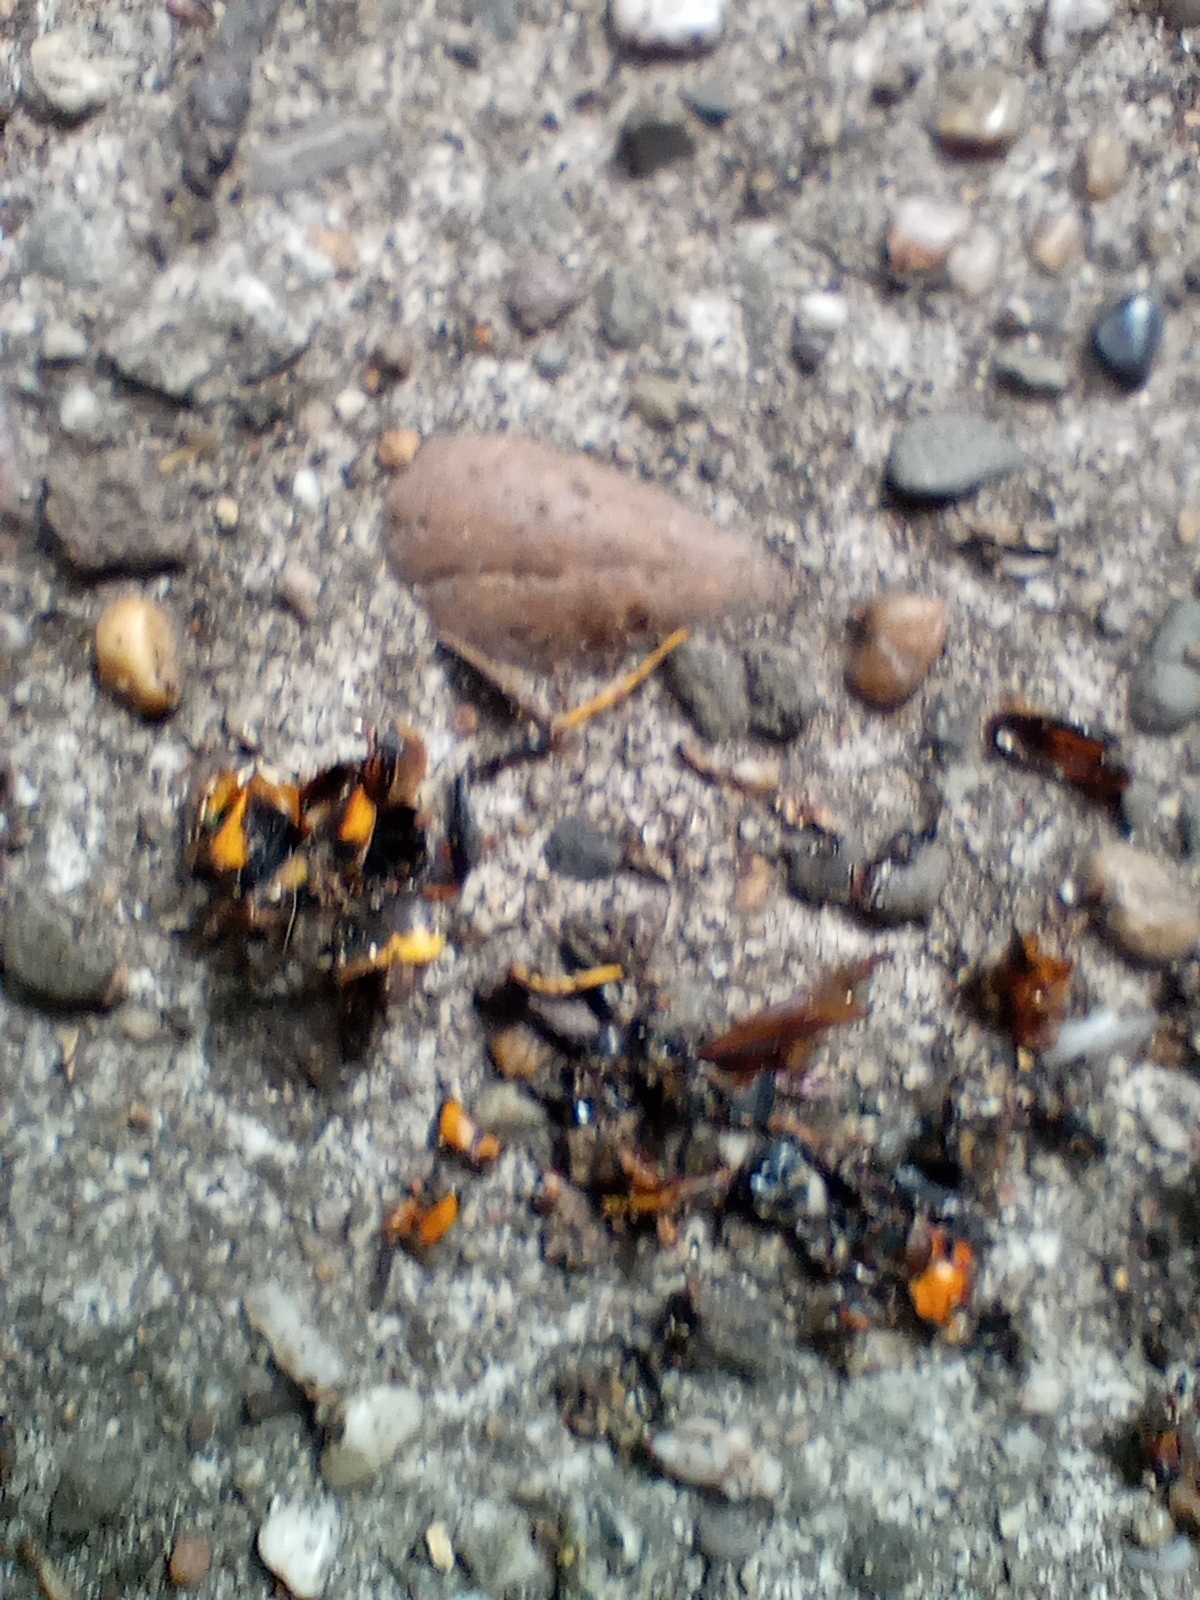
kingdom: Animalia
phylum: Arthropoda
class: Insecta
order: Hymenoptera
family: Vespidae
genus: Vespa
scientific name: Vespa velutina
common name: Asian hornet
